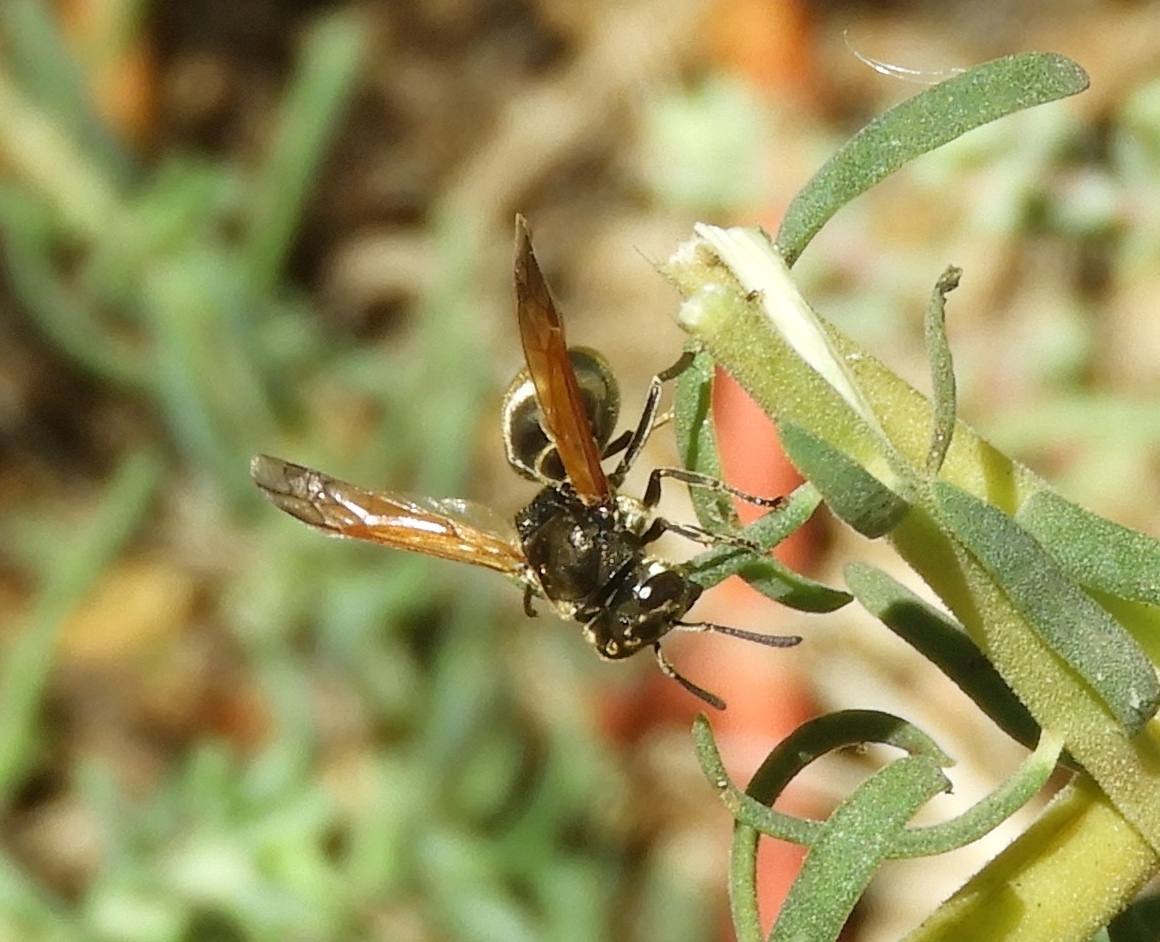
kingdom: Animalia
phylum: Arthropoda
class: Insecta
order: Hymenoptera
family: Vespidae
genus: Brachygastra
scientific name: Brachygastra mellifica
